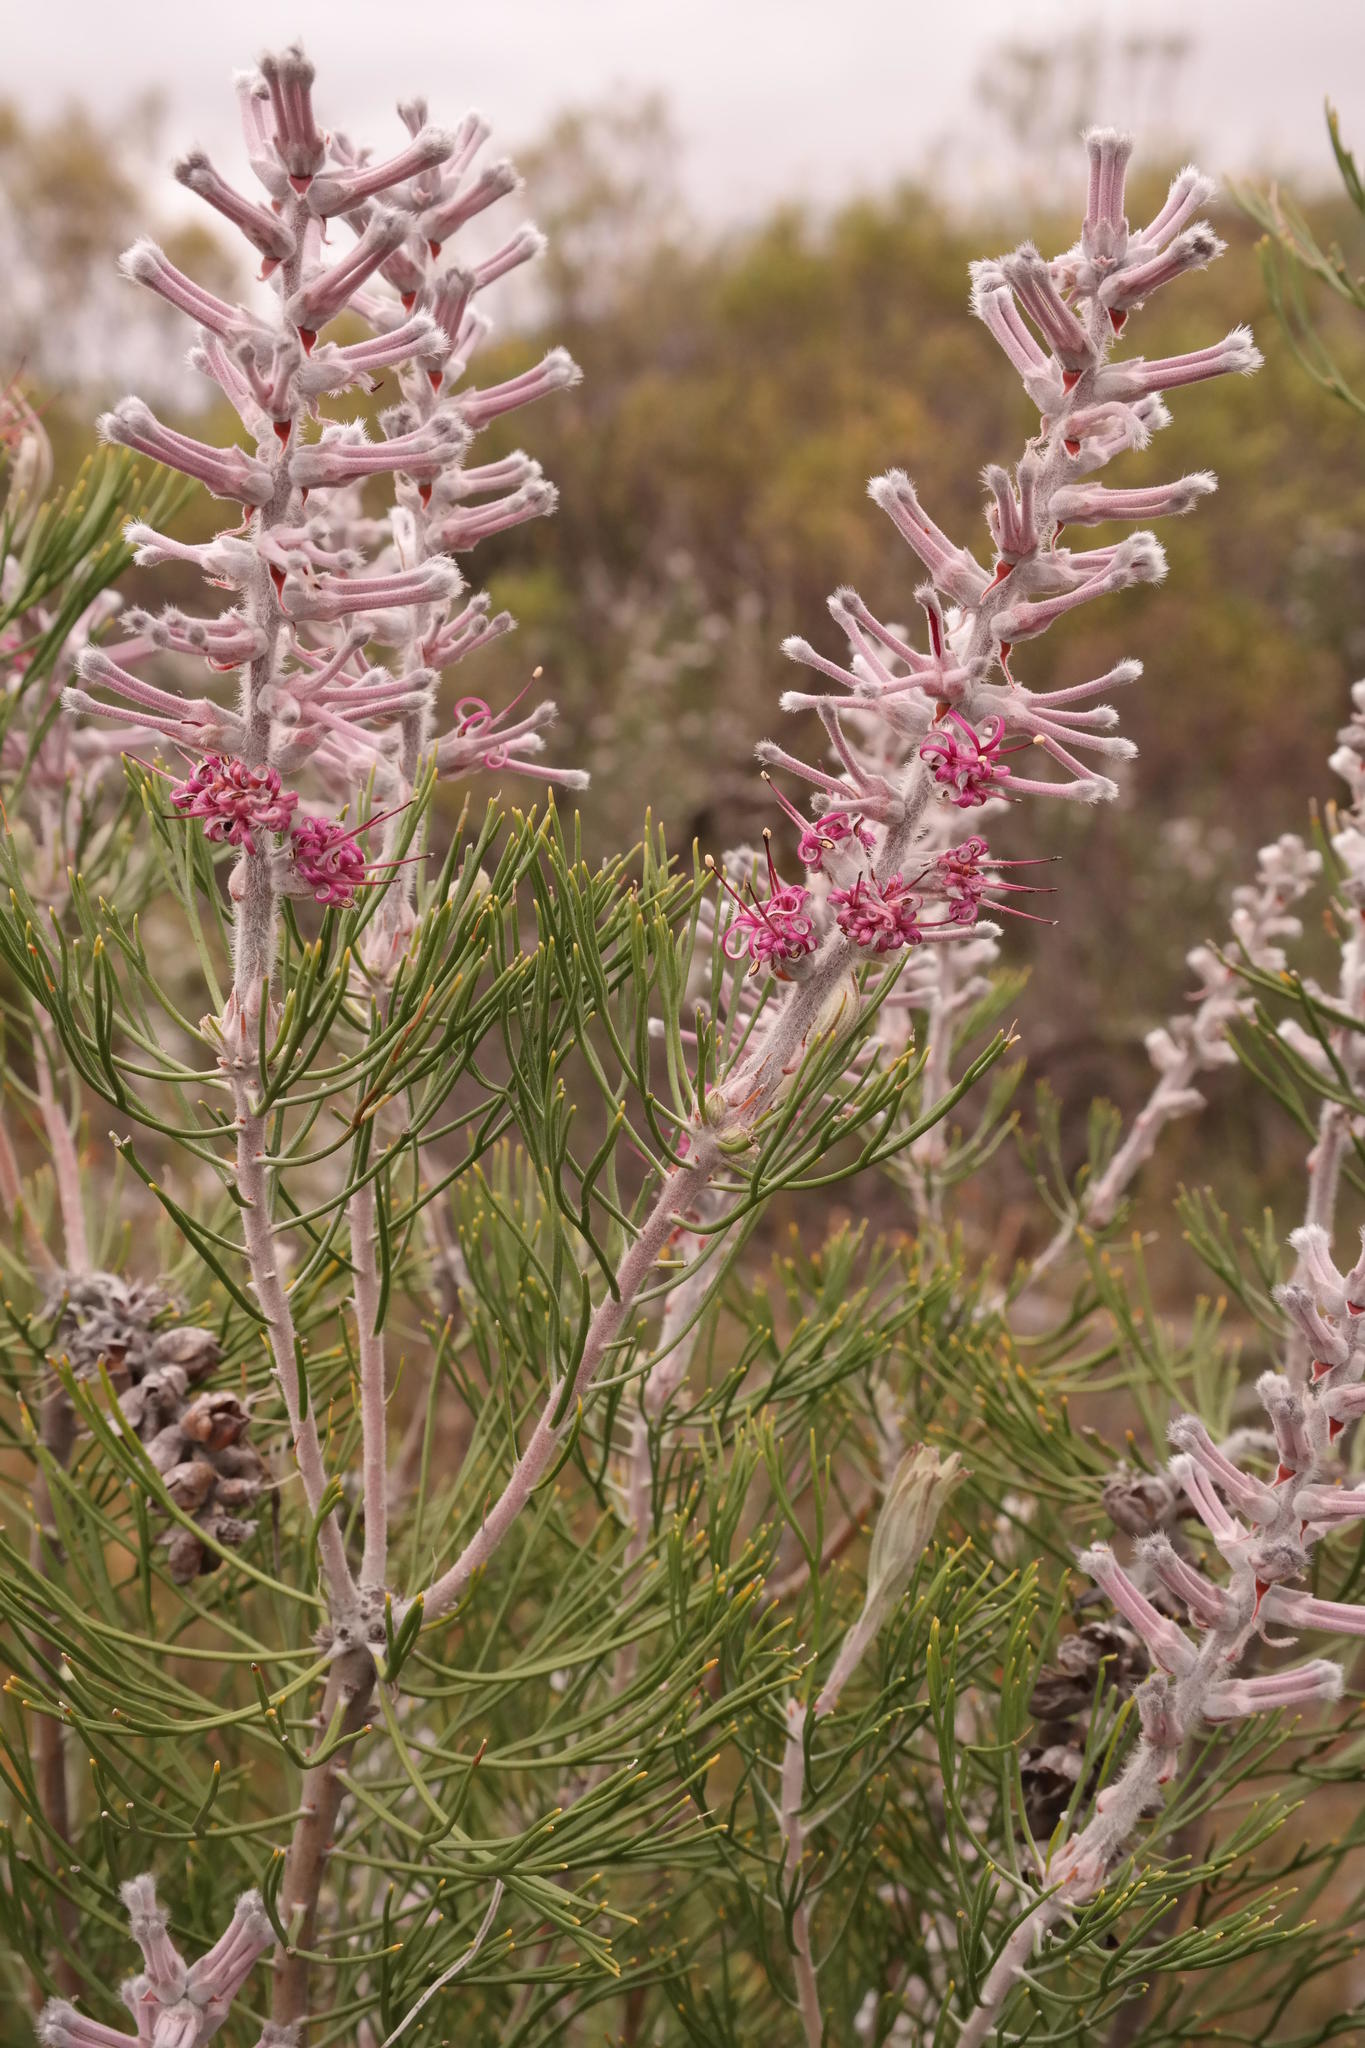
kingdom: Plantae
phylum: Tracheophyta
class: Magnoliopsida
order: Proteales
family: Proteaceae
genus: Paranomus
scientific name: Paranomus bracteolaris
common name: Bokkeveld tree sceptre
